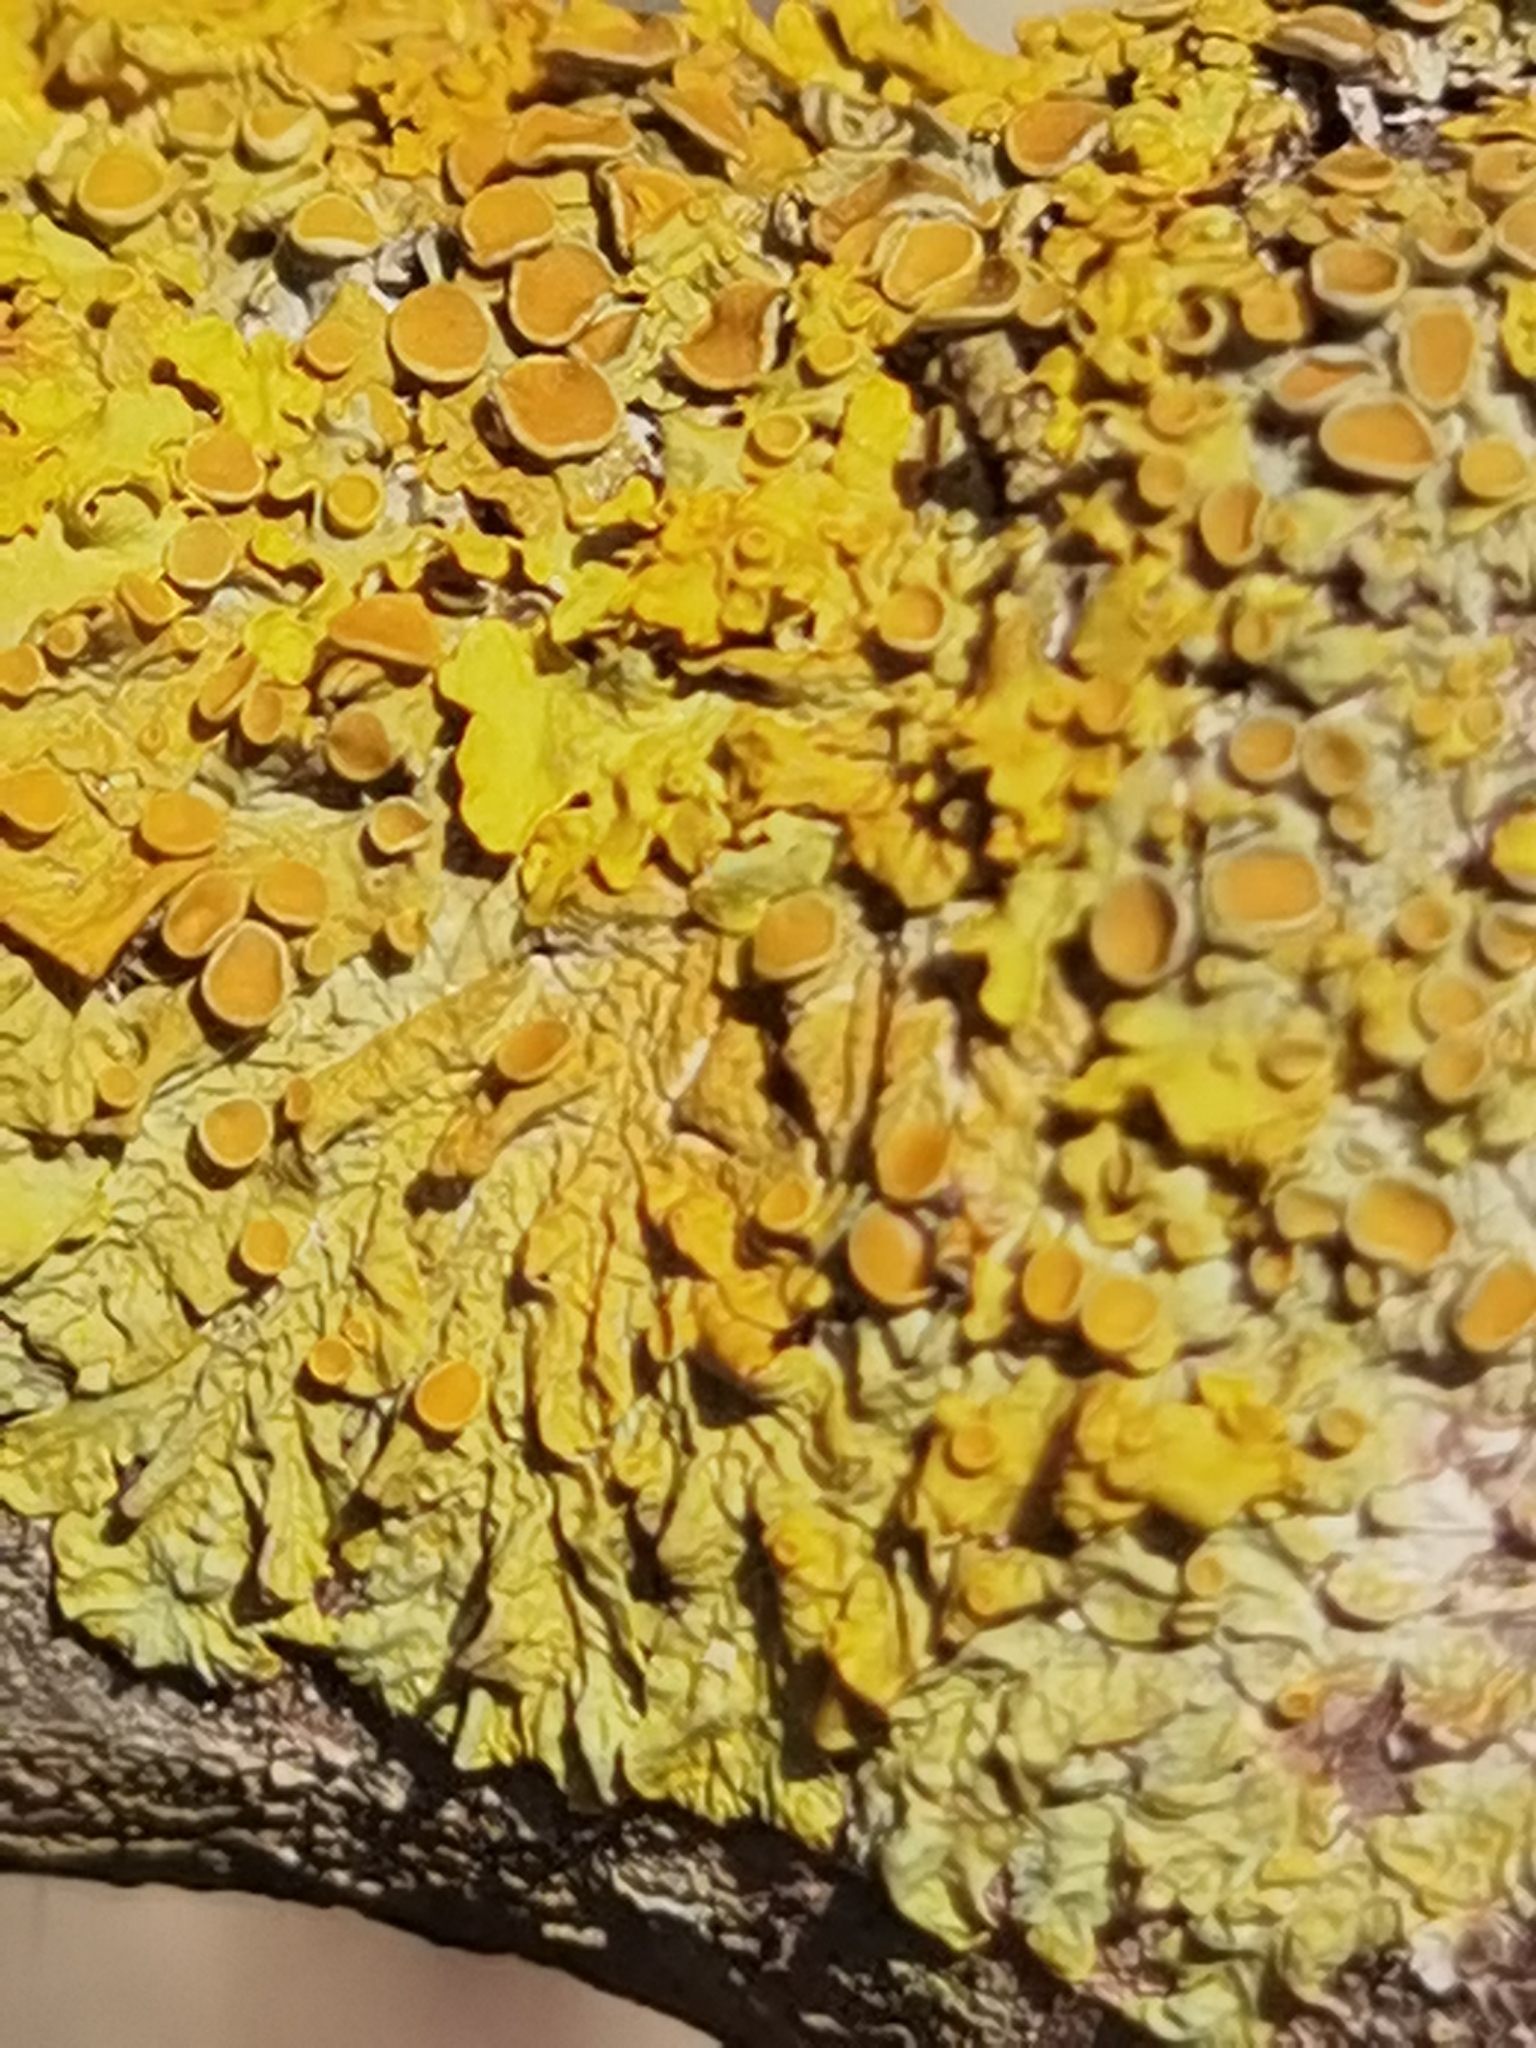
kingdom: Fungi
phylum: Ascomycota
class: Lecanoromycetes
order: Teloschistales
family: Teloschistaceae
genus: Xanthoria
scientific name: Xanthoria parietina
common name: Common orange lichen
